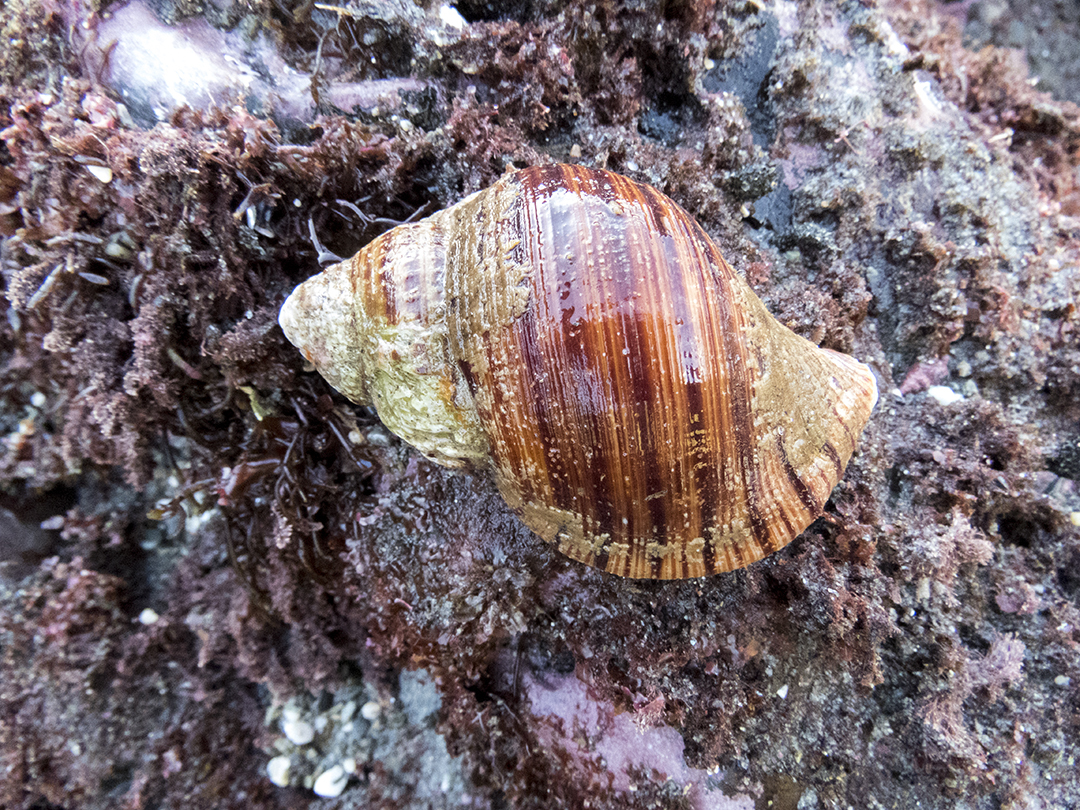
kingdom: Animalia
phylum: Mollusca
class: Gastropoda
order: Littorinimorpha
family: Cymatiidae
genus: Argobuccinum
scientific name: Argobuccinum pustulosum
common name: Pustular triton
